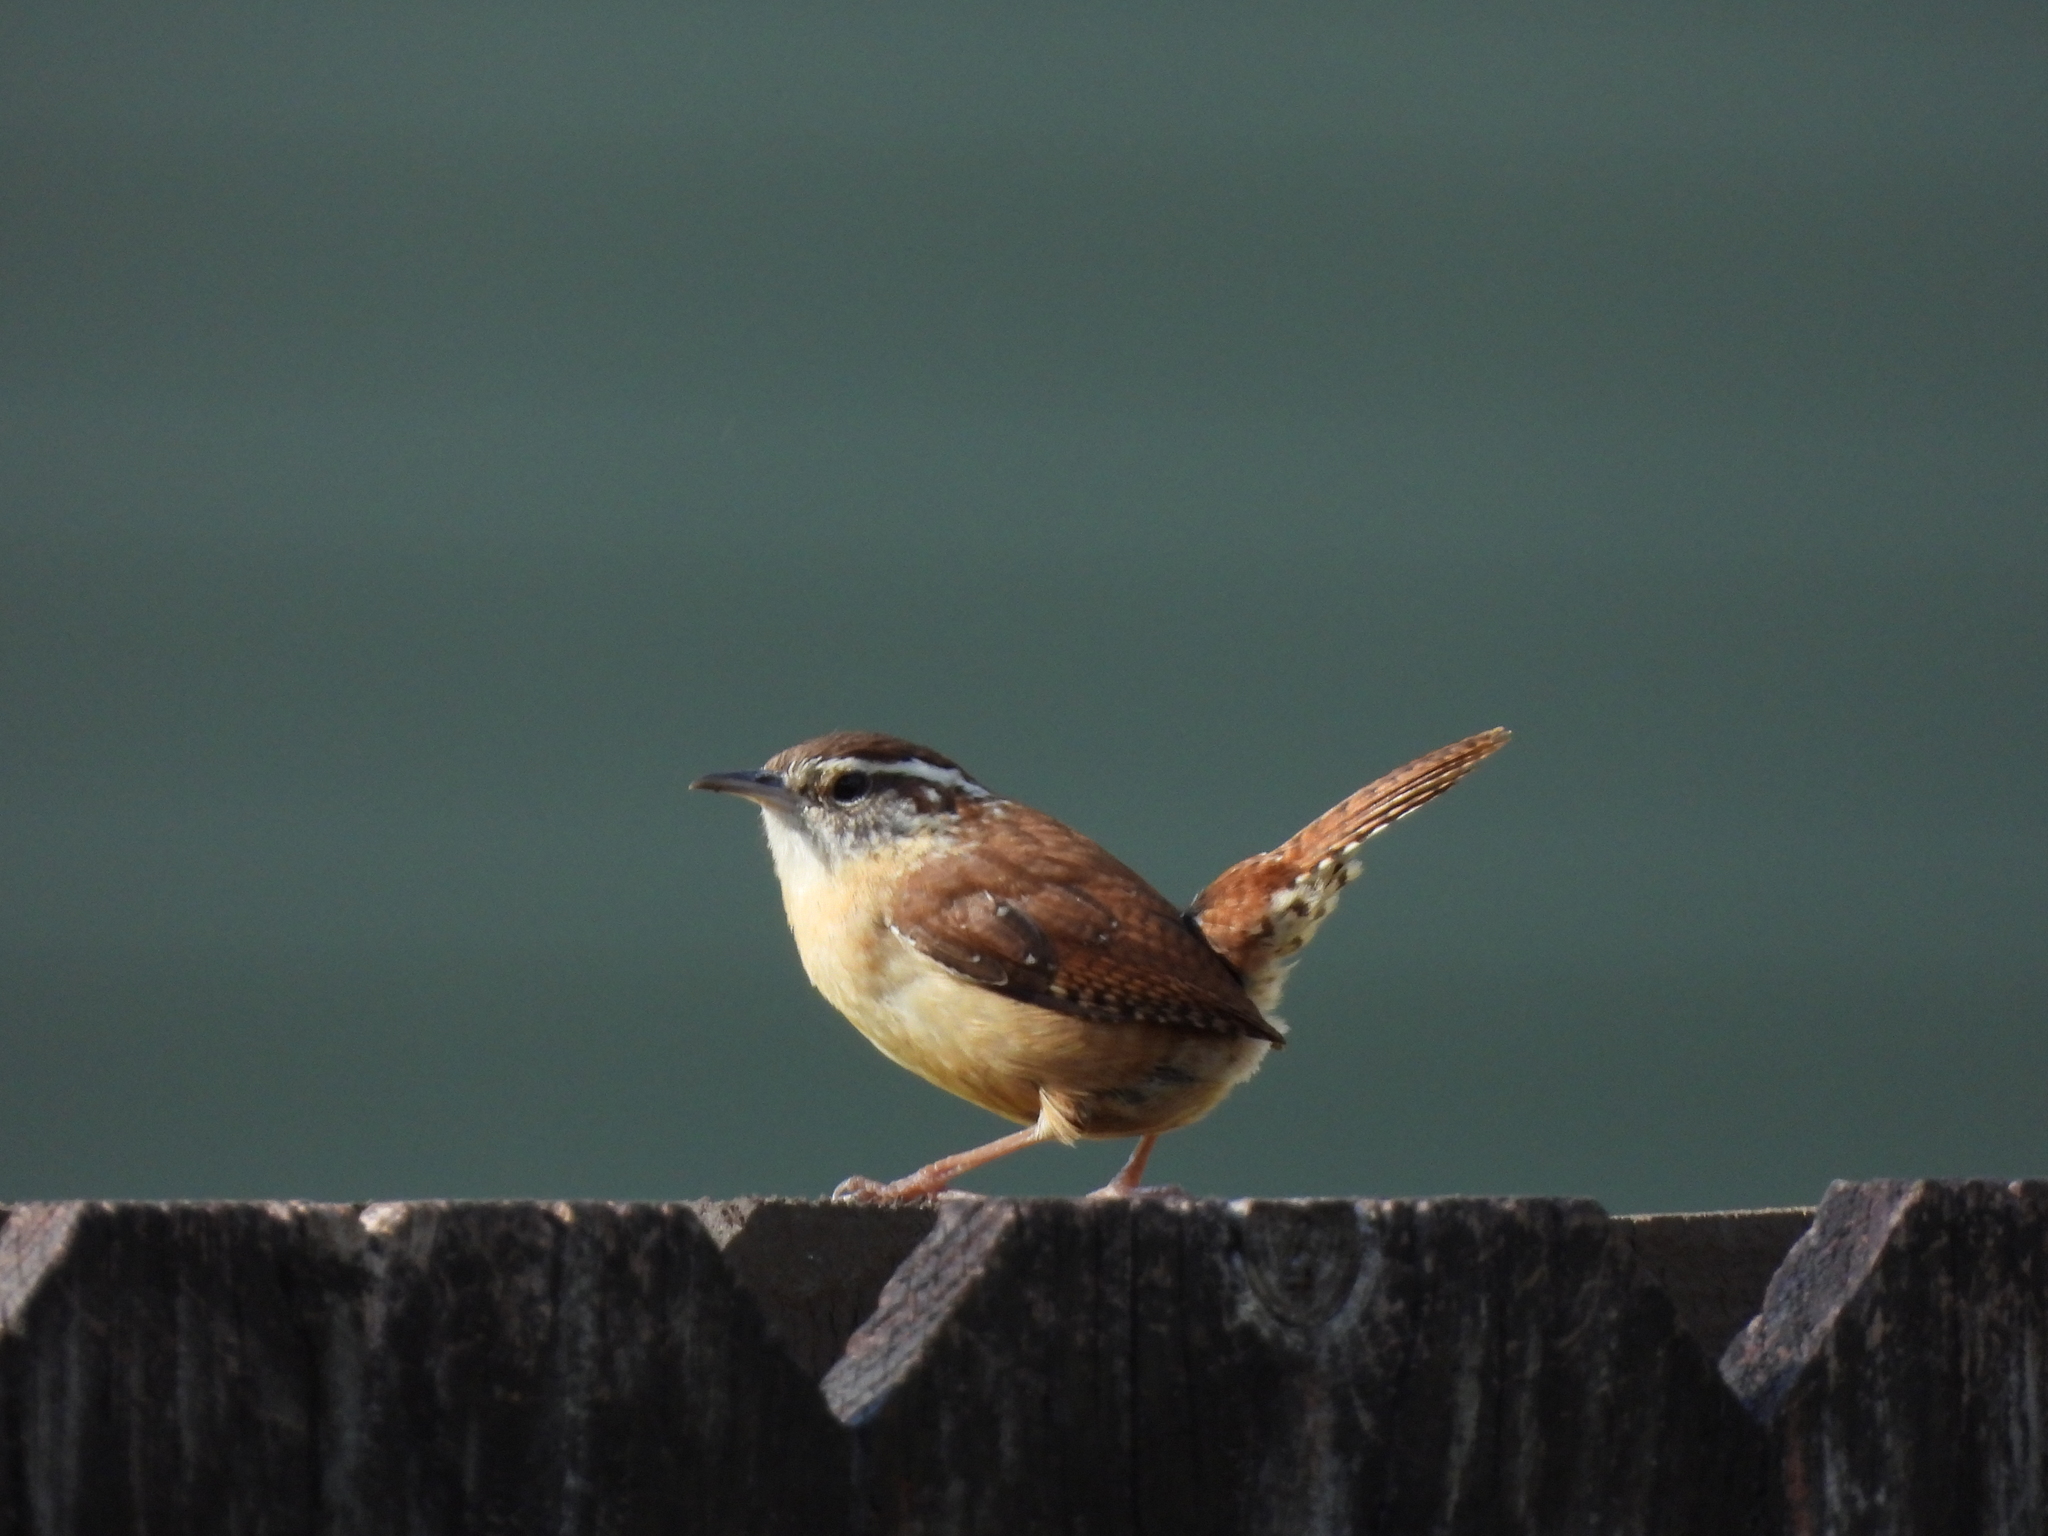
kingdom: Animalia
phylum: Chordata
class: Aves
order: Passeriformes
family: Troglodytidae
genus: Thryothorus
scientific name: Thryothorus ludovicianus
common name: Carolina wren
